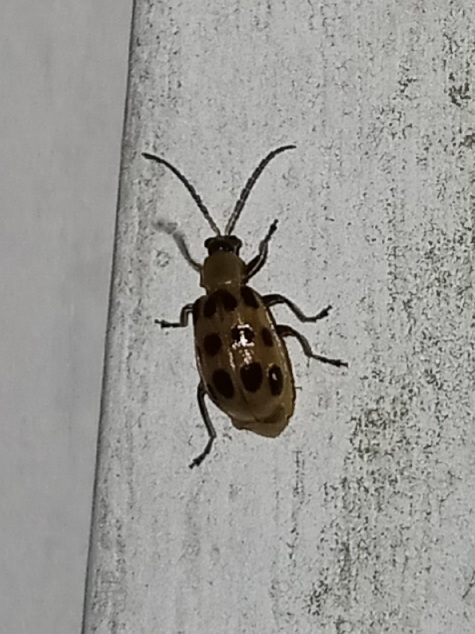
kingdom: Animalia
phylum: Arthropoda
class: Insecta
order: Coleoptera
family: Chrysomelidae
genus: Diabrotica
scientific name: Diabrotica undecimpunctata
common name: Spotted cucumber beetle
